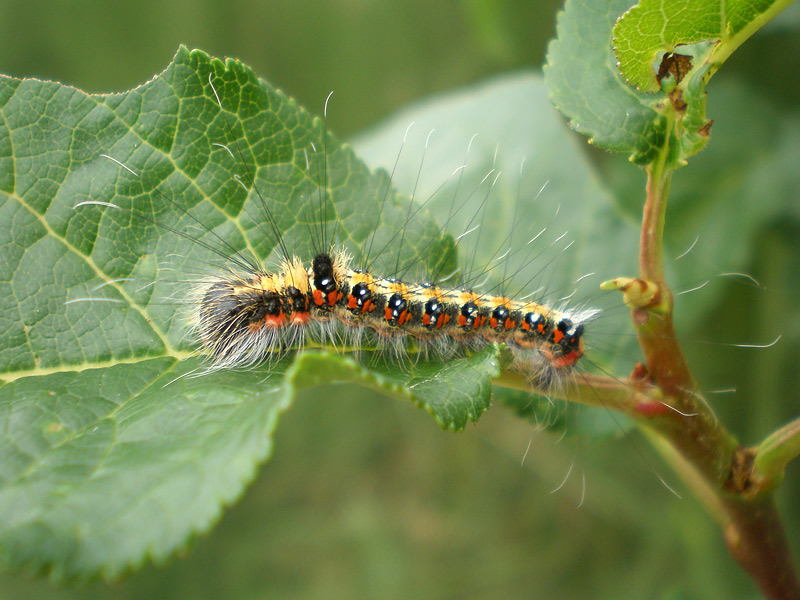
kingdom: Animalia
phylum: Arthropoda
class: Insecta
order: Lepidoptera
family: Noctuidae
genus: Acronicta
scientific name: Acronicta tridens
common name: Dark dagger
